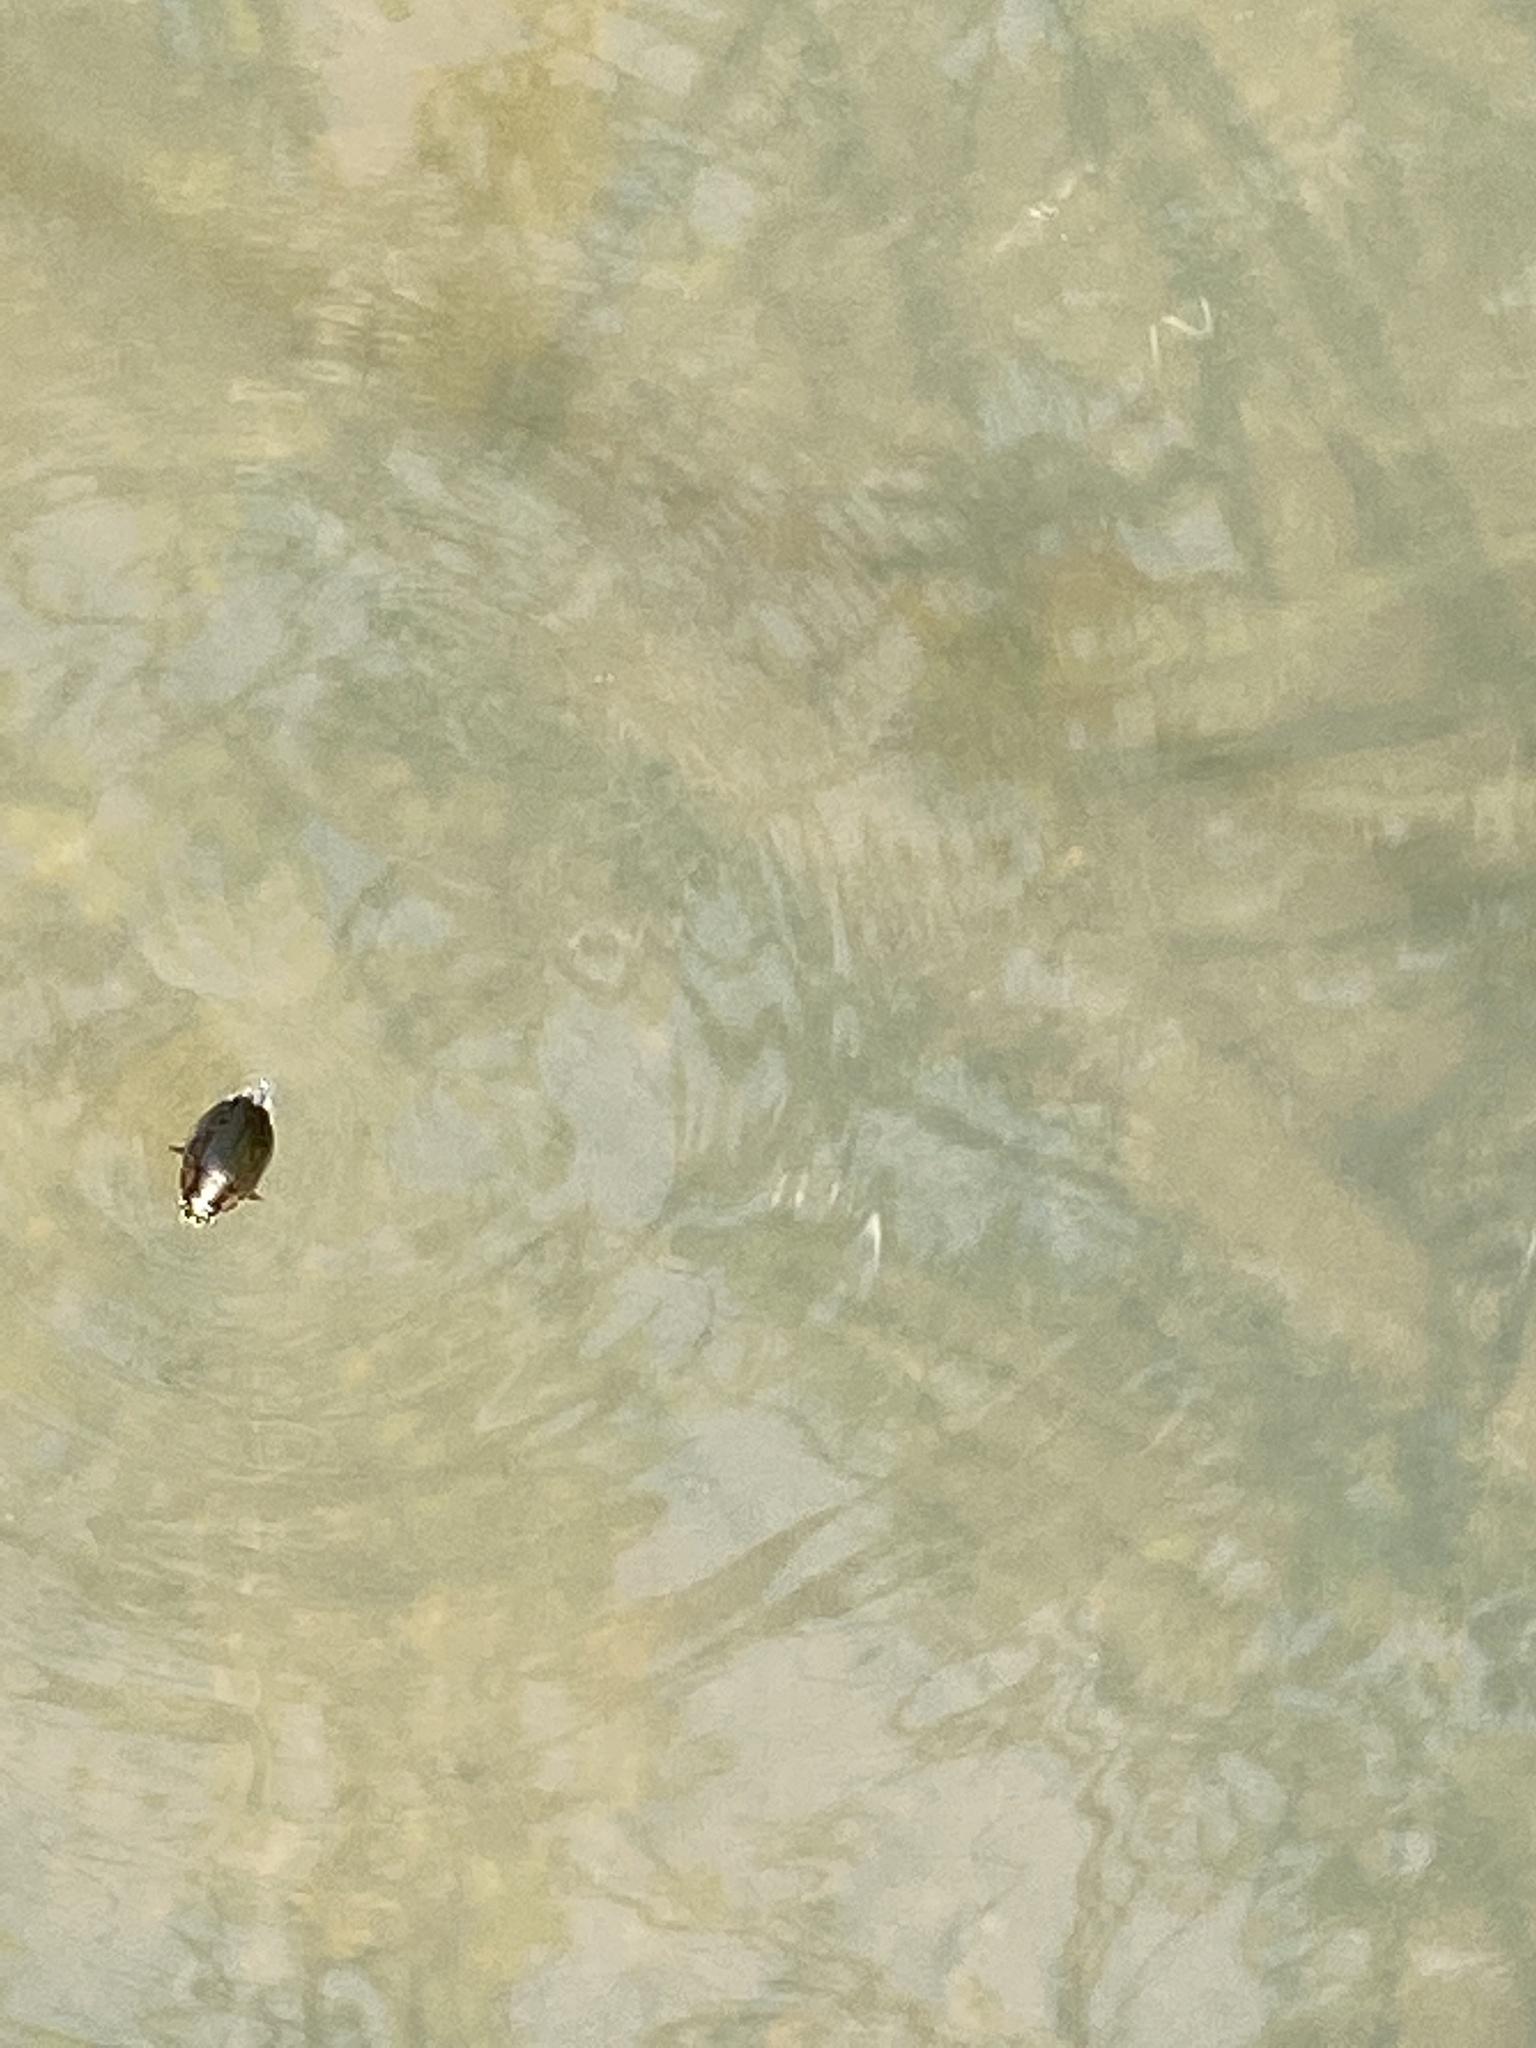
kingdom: Animalia
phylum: Arthropoda
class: Insecta
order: Coleoptera
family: Gyrinidae
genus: Dineutus
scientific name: Dineutus
